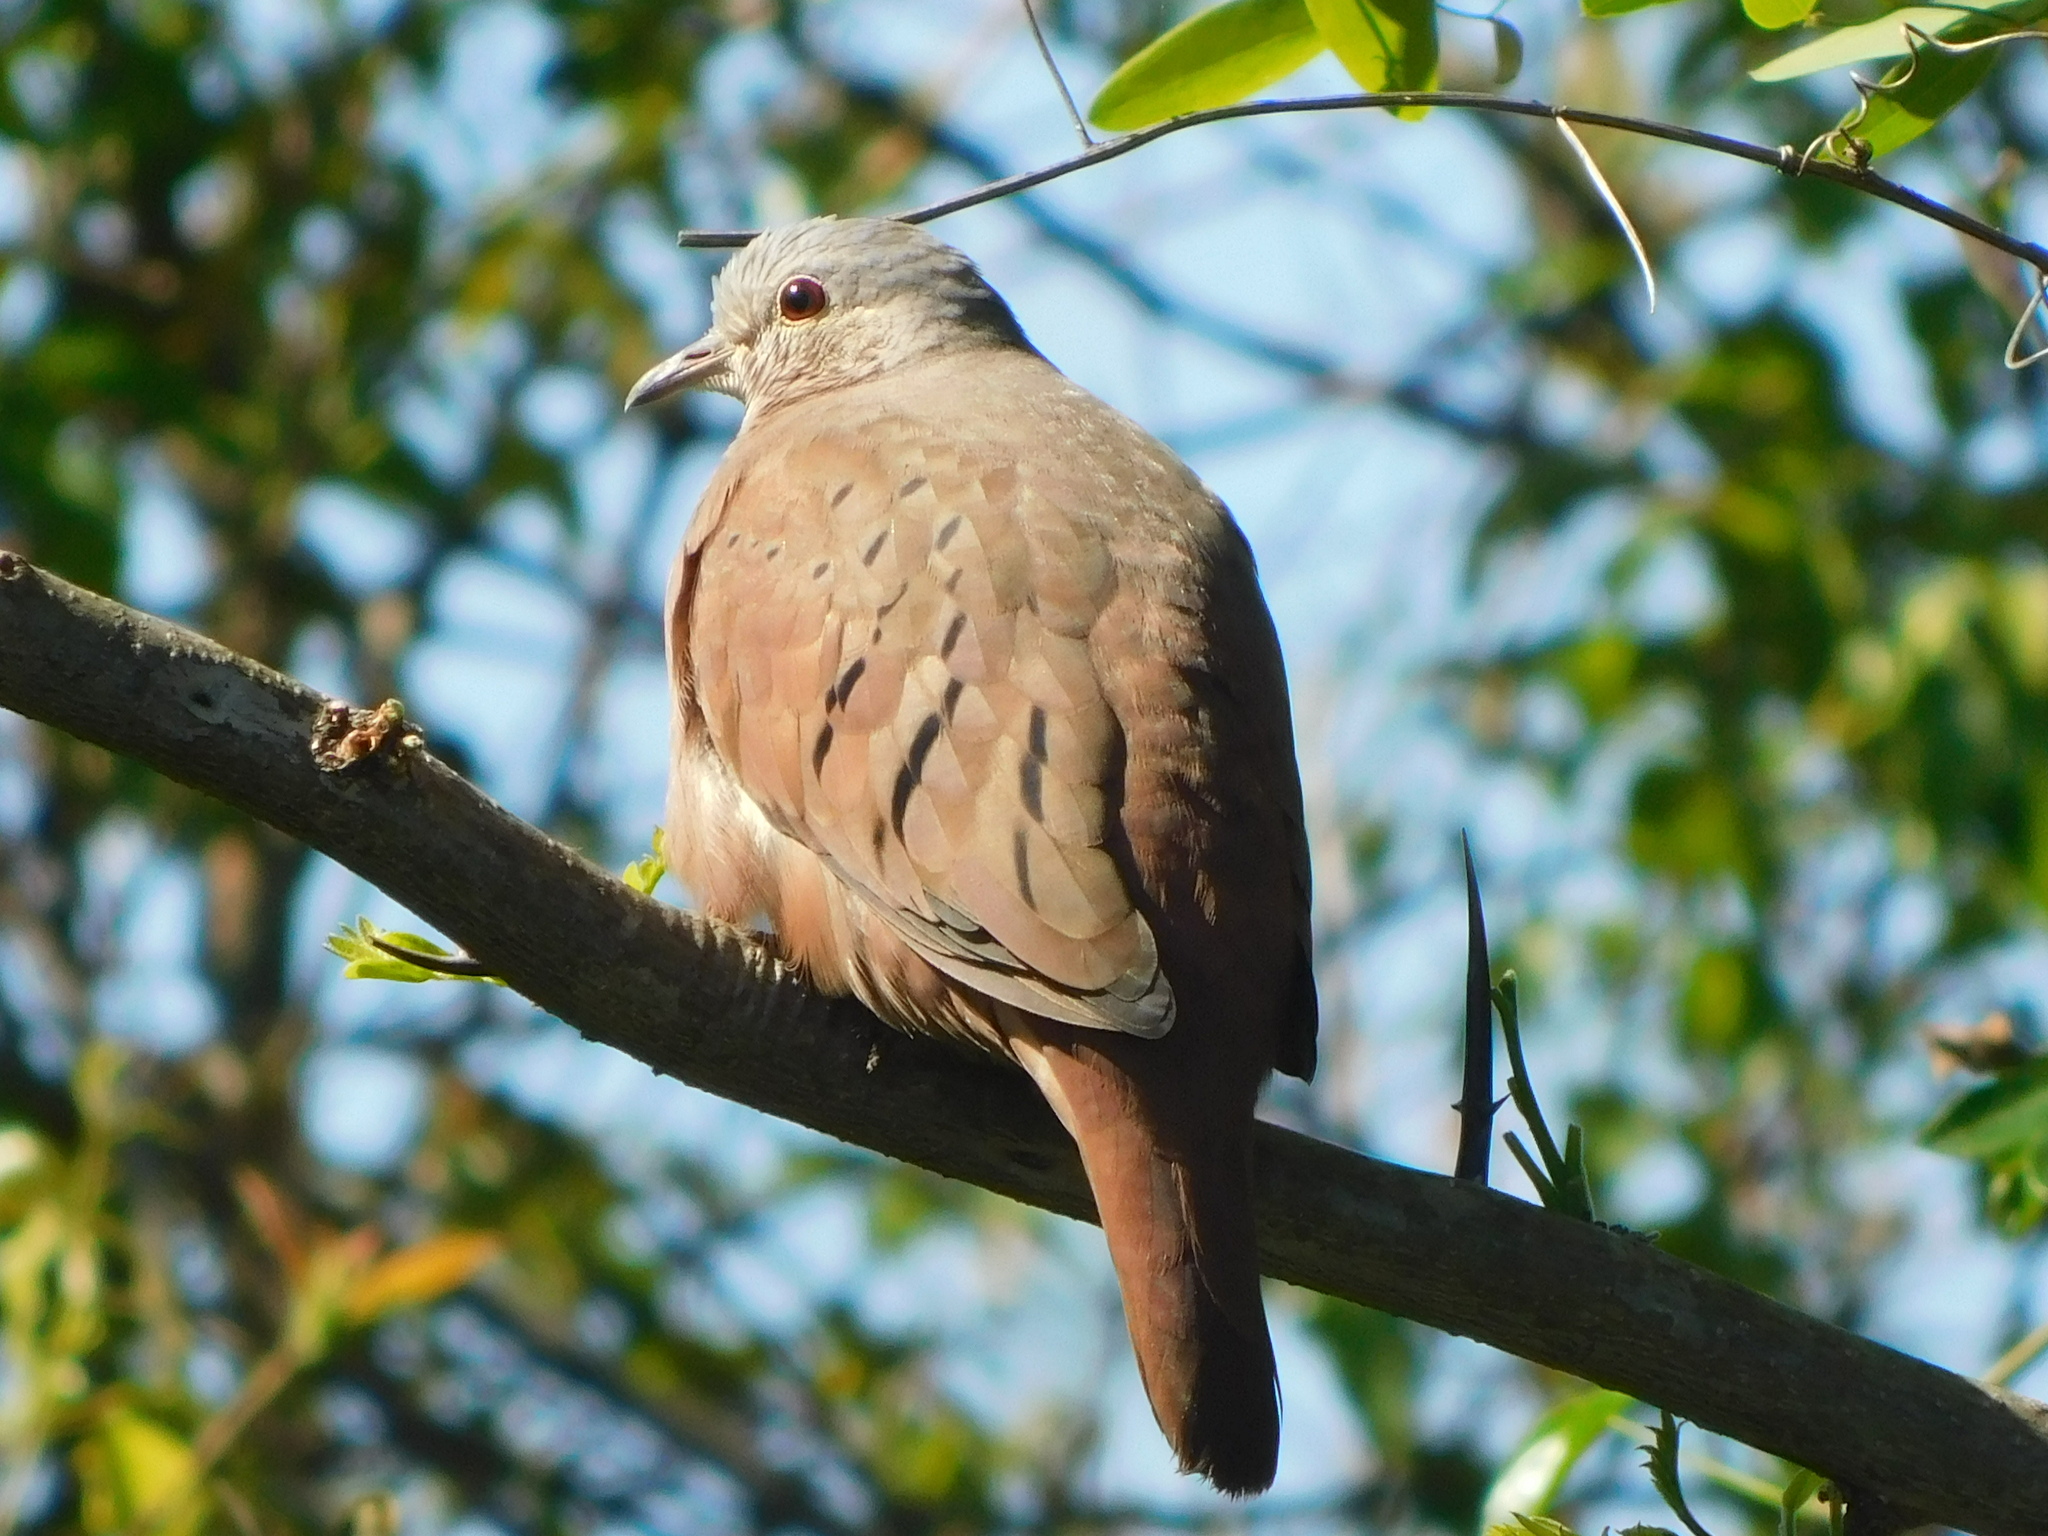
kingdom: Animalia
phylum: Chordata
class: Aves
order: Columbiformes
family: Columbidae
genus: Columbina
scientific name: Columbina talpacoti
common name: Ruddy ground dove
